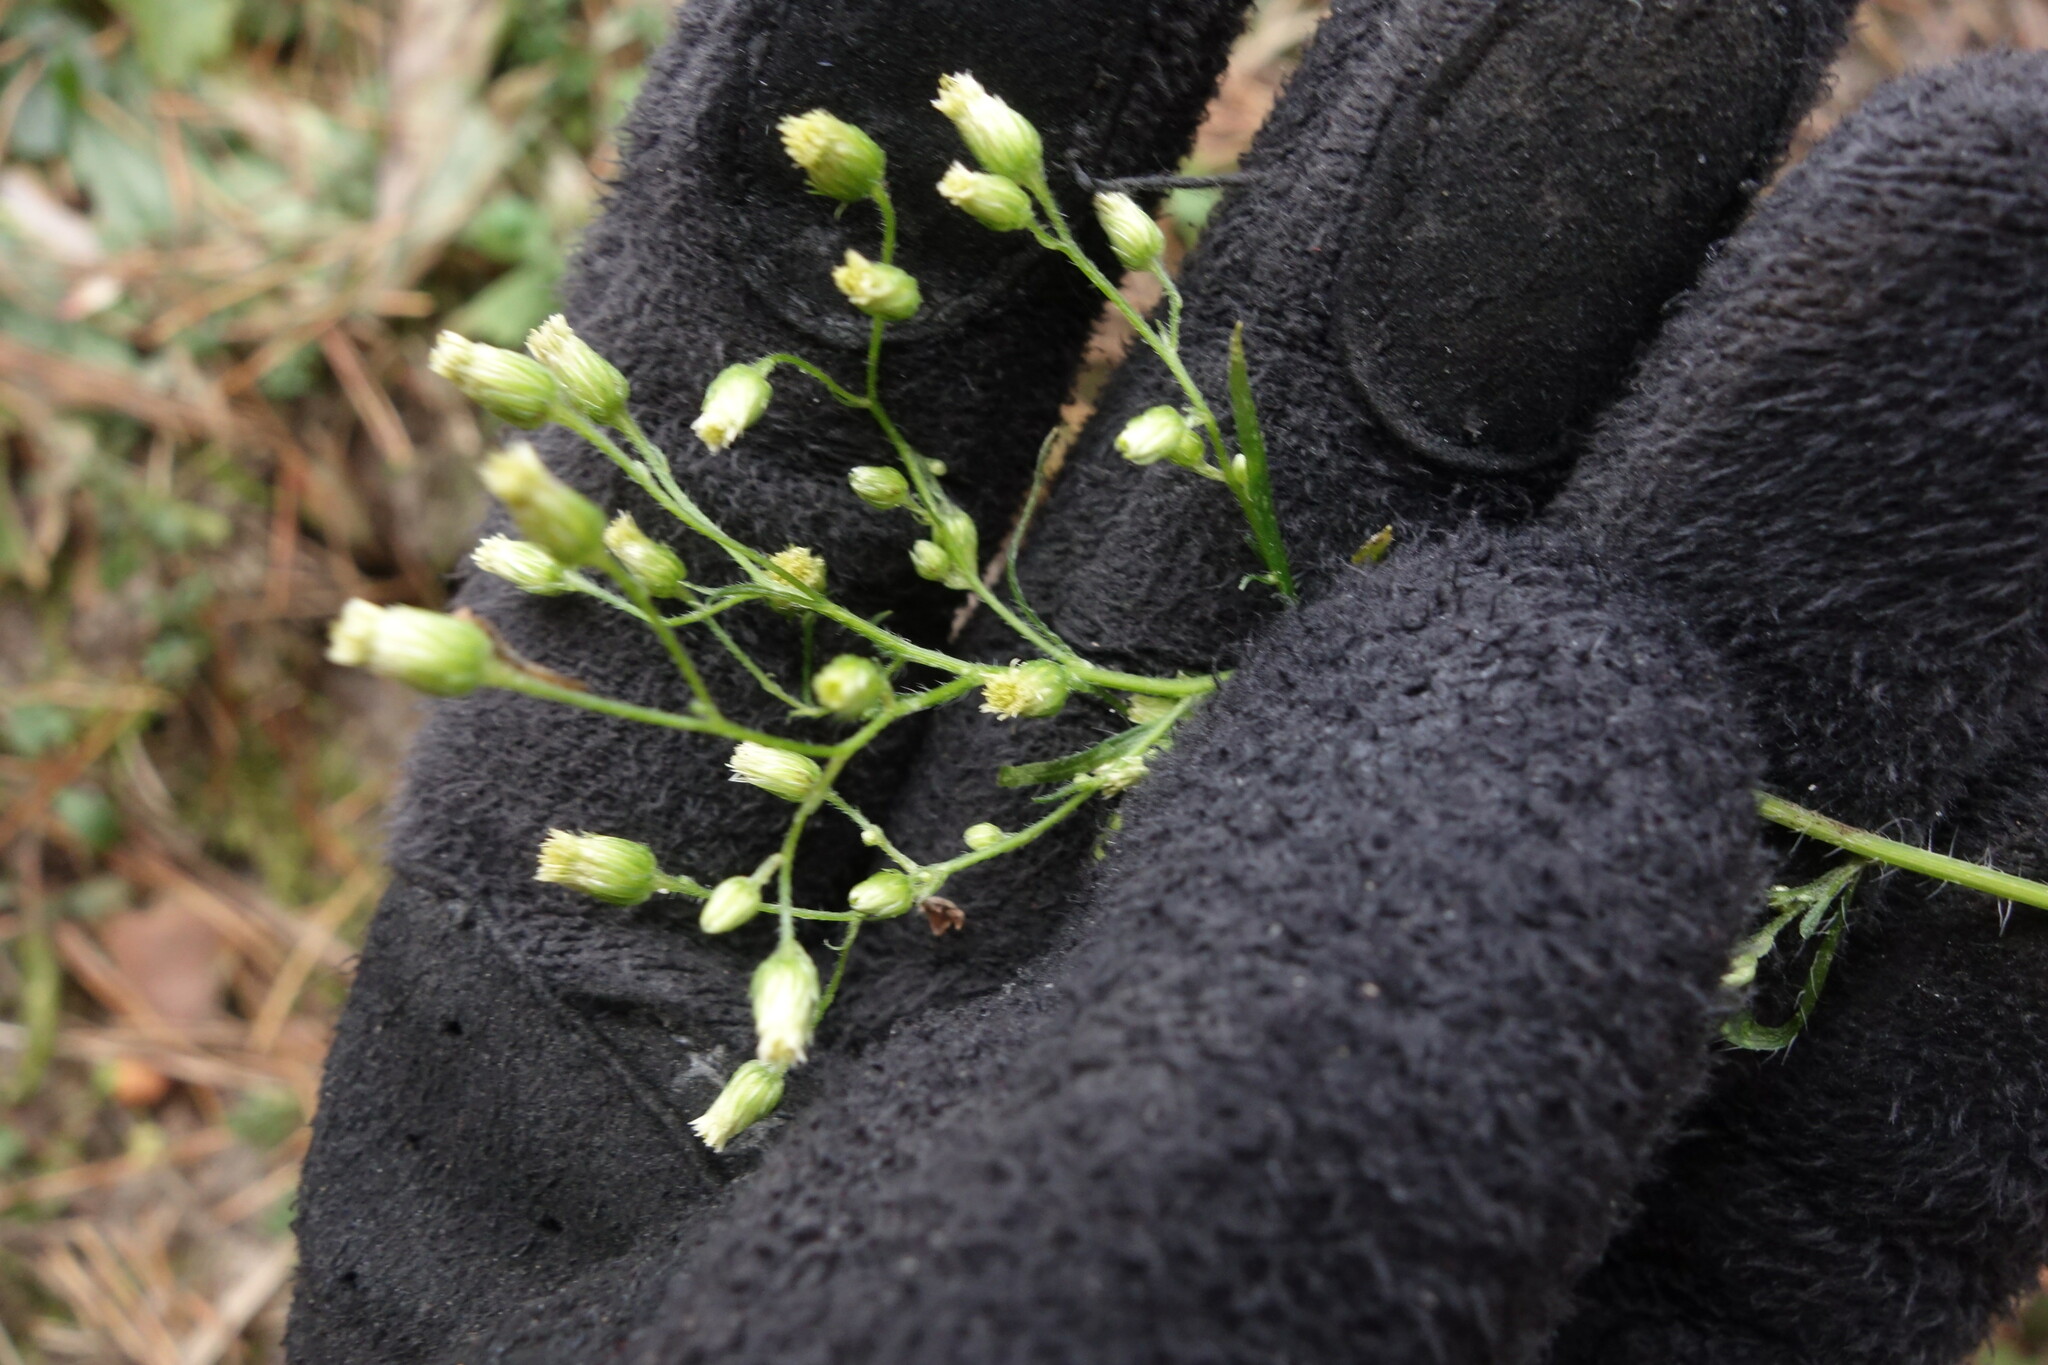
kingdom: Plantae
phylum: Tracheophyta
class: Magnoliopsida
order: Asterales
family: Asteraceae
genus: Erigeron
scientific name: Erigeron canadensis
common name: Canadian fleabane
